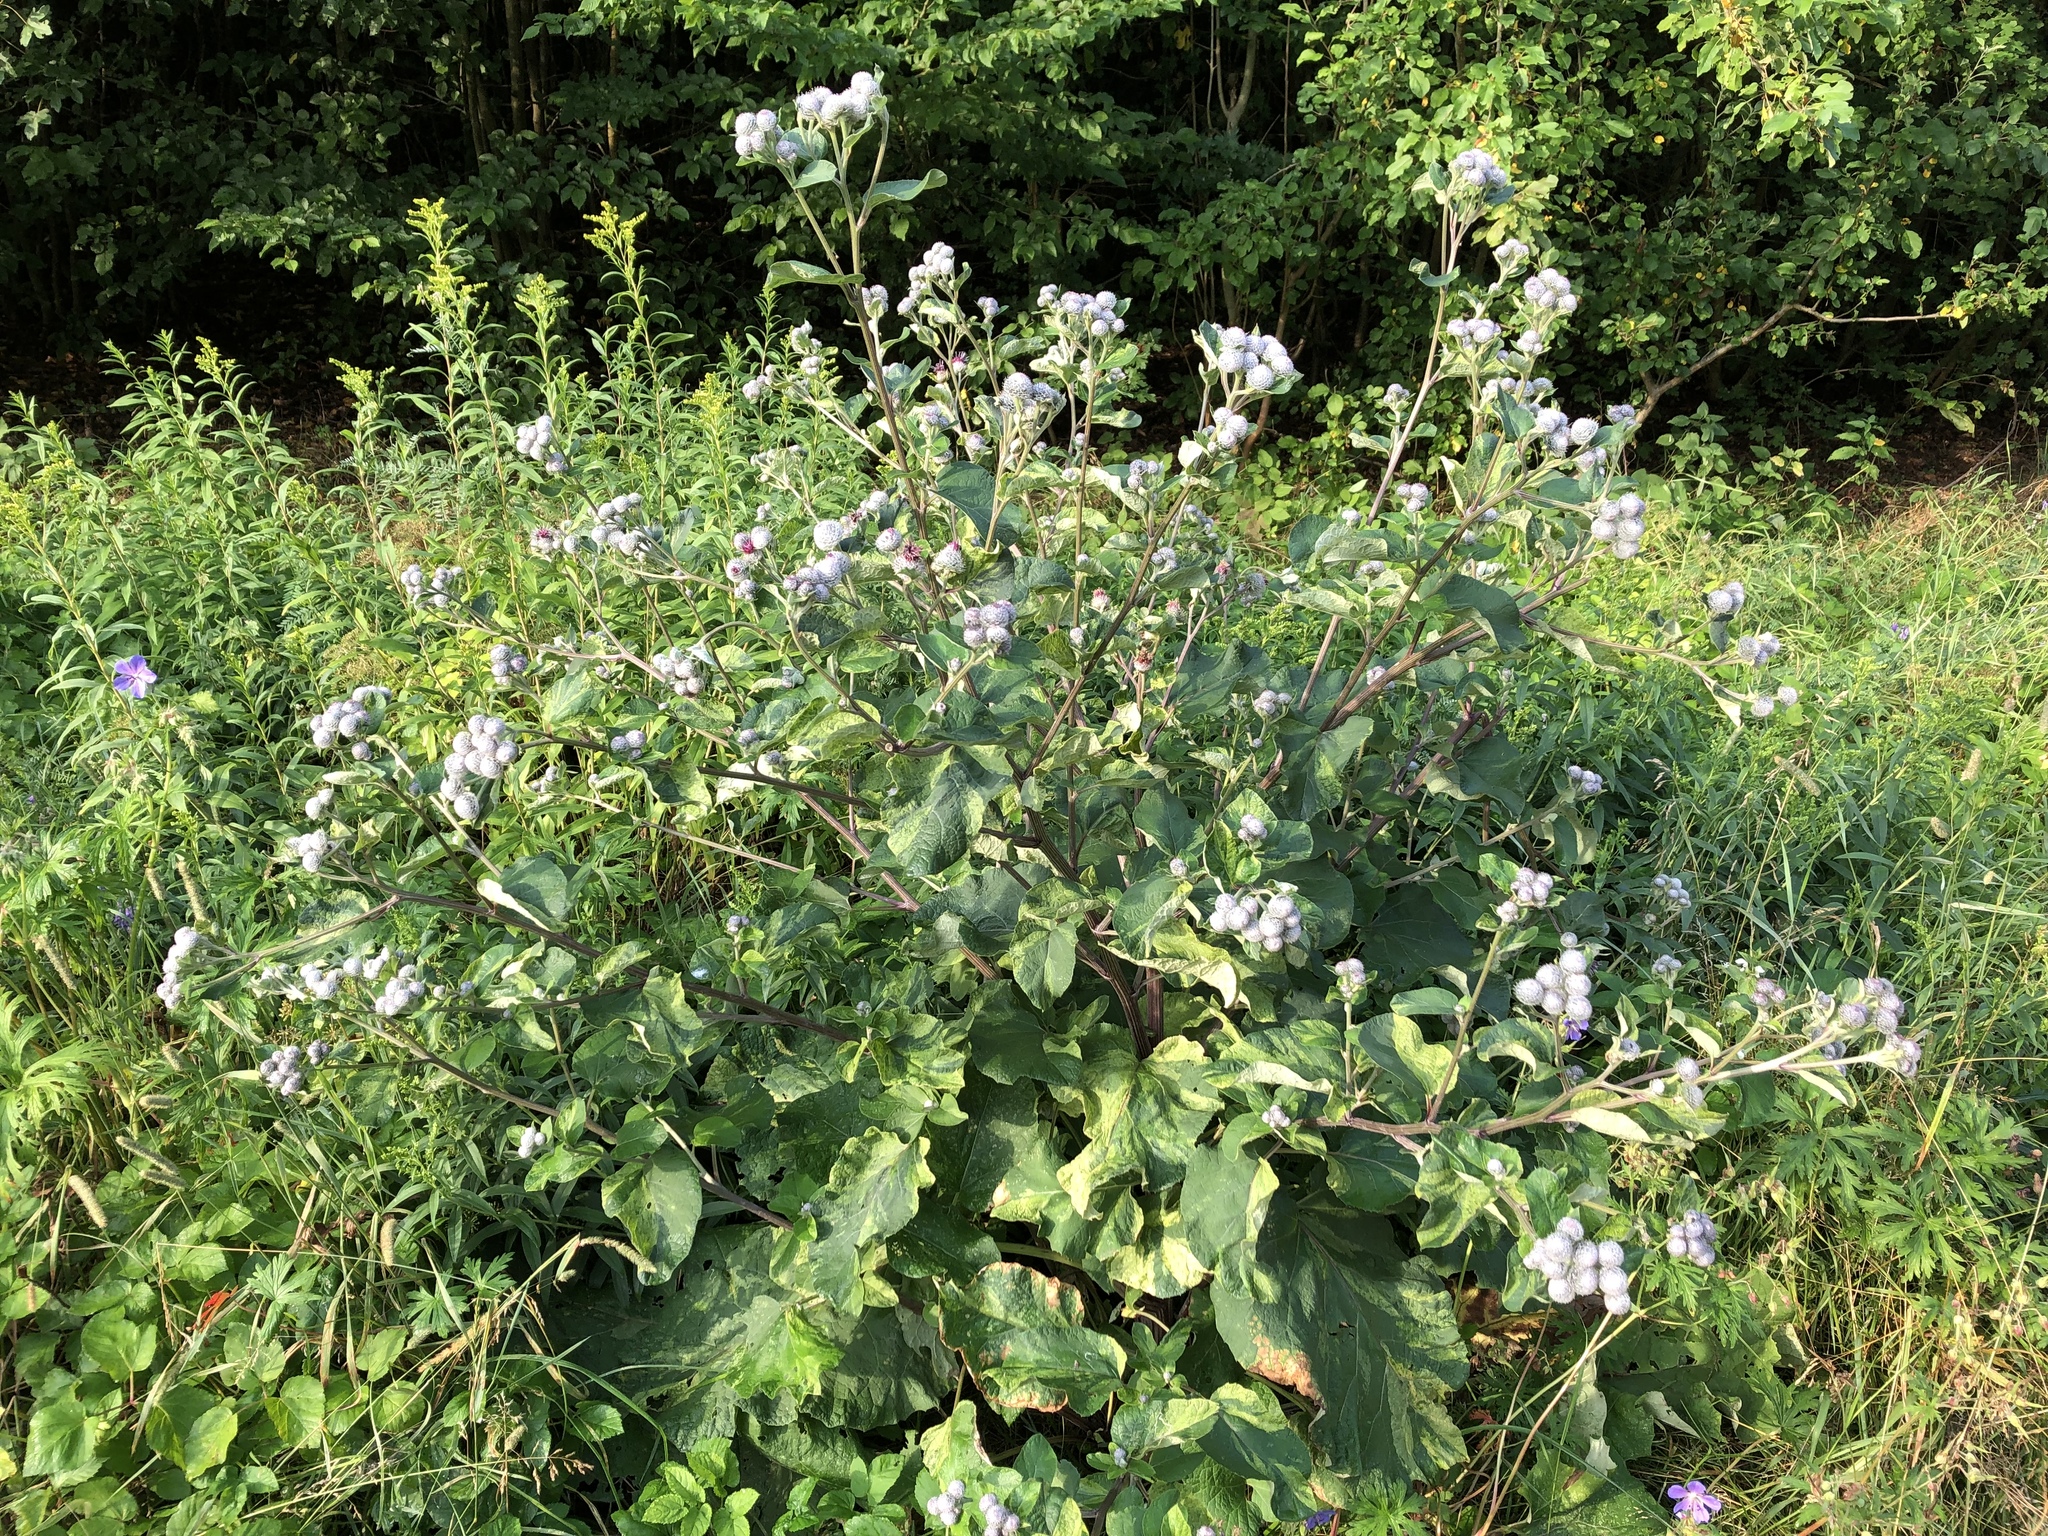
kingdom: Plantae
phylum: Tracheophyta
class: Magnoliopsida
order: Asterales
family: Asteraceae
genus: Arctium
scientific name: Arctium tomentosum
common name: Woolly burdock
